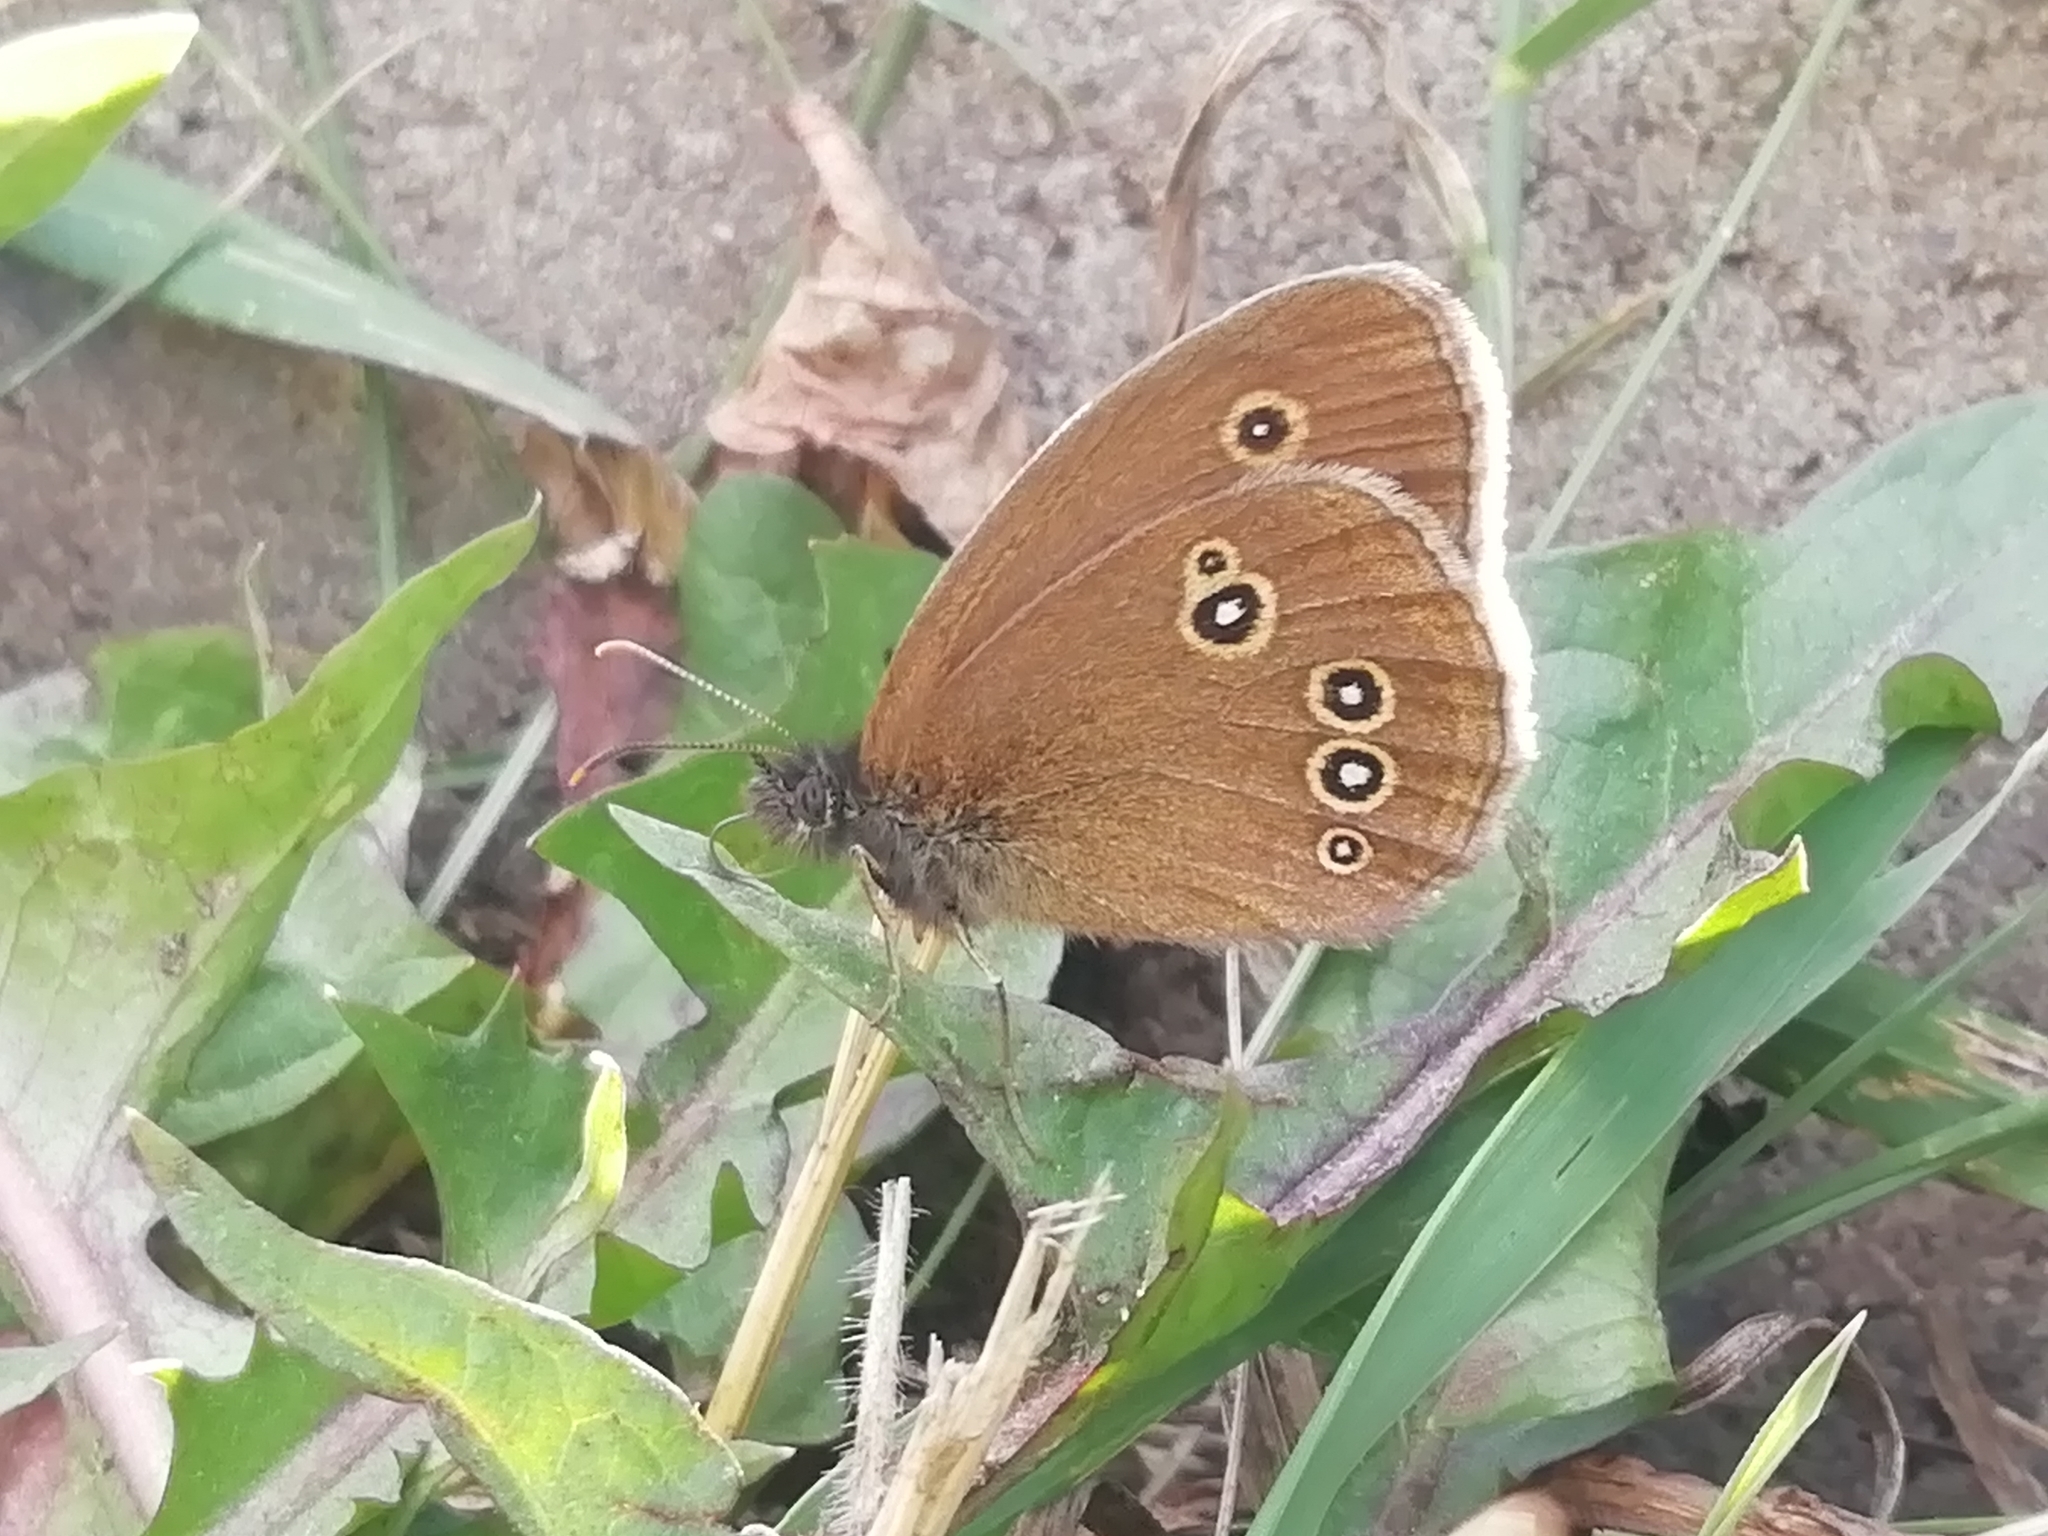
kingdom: Animalia
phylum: Arthropoda
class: Insecta
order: Lepidoptera
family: Nymphalidae
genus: Aphantopus
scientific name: Aphantopus hyperantus
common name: Ringlet
